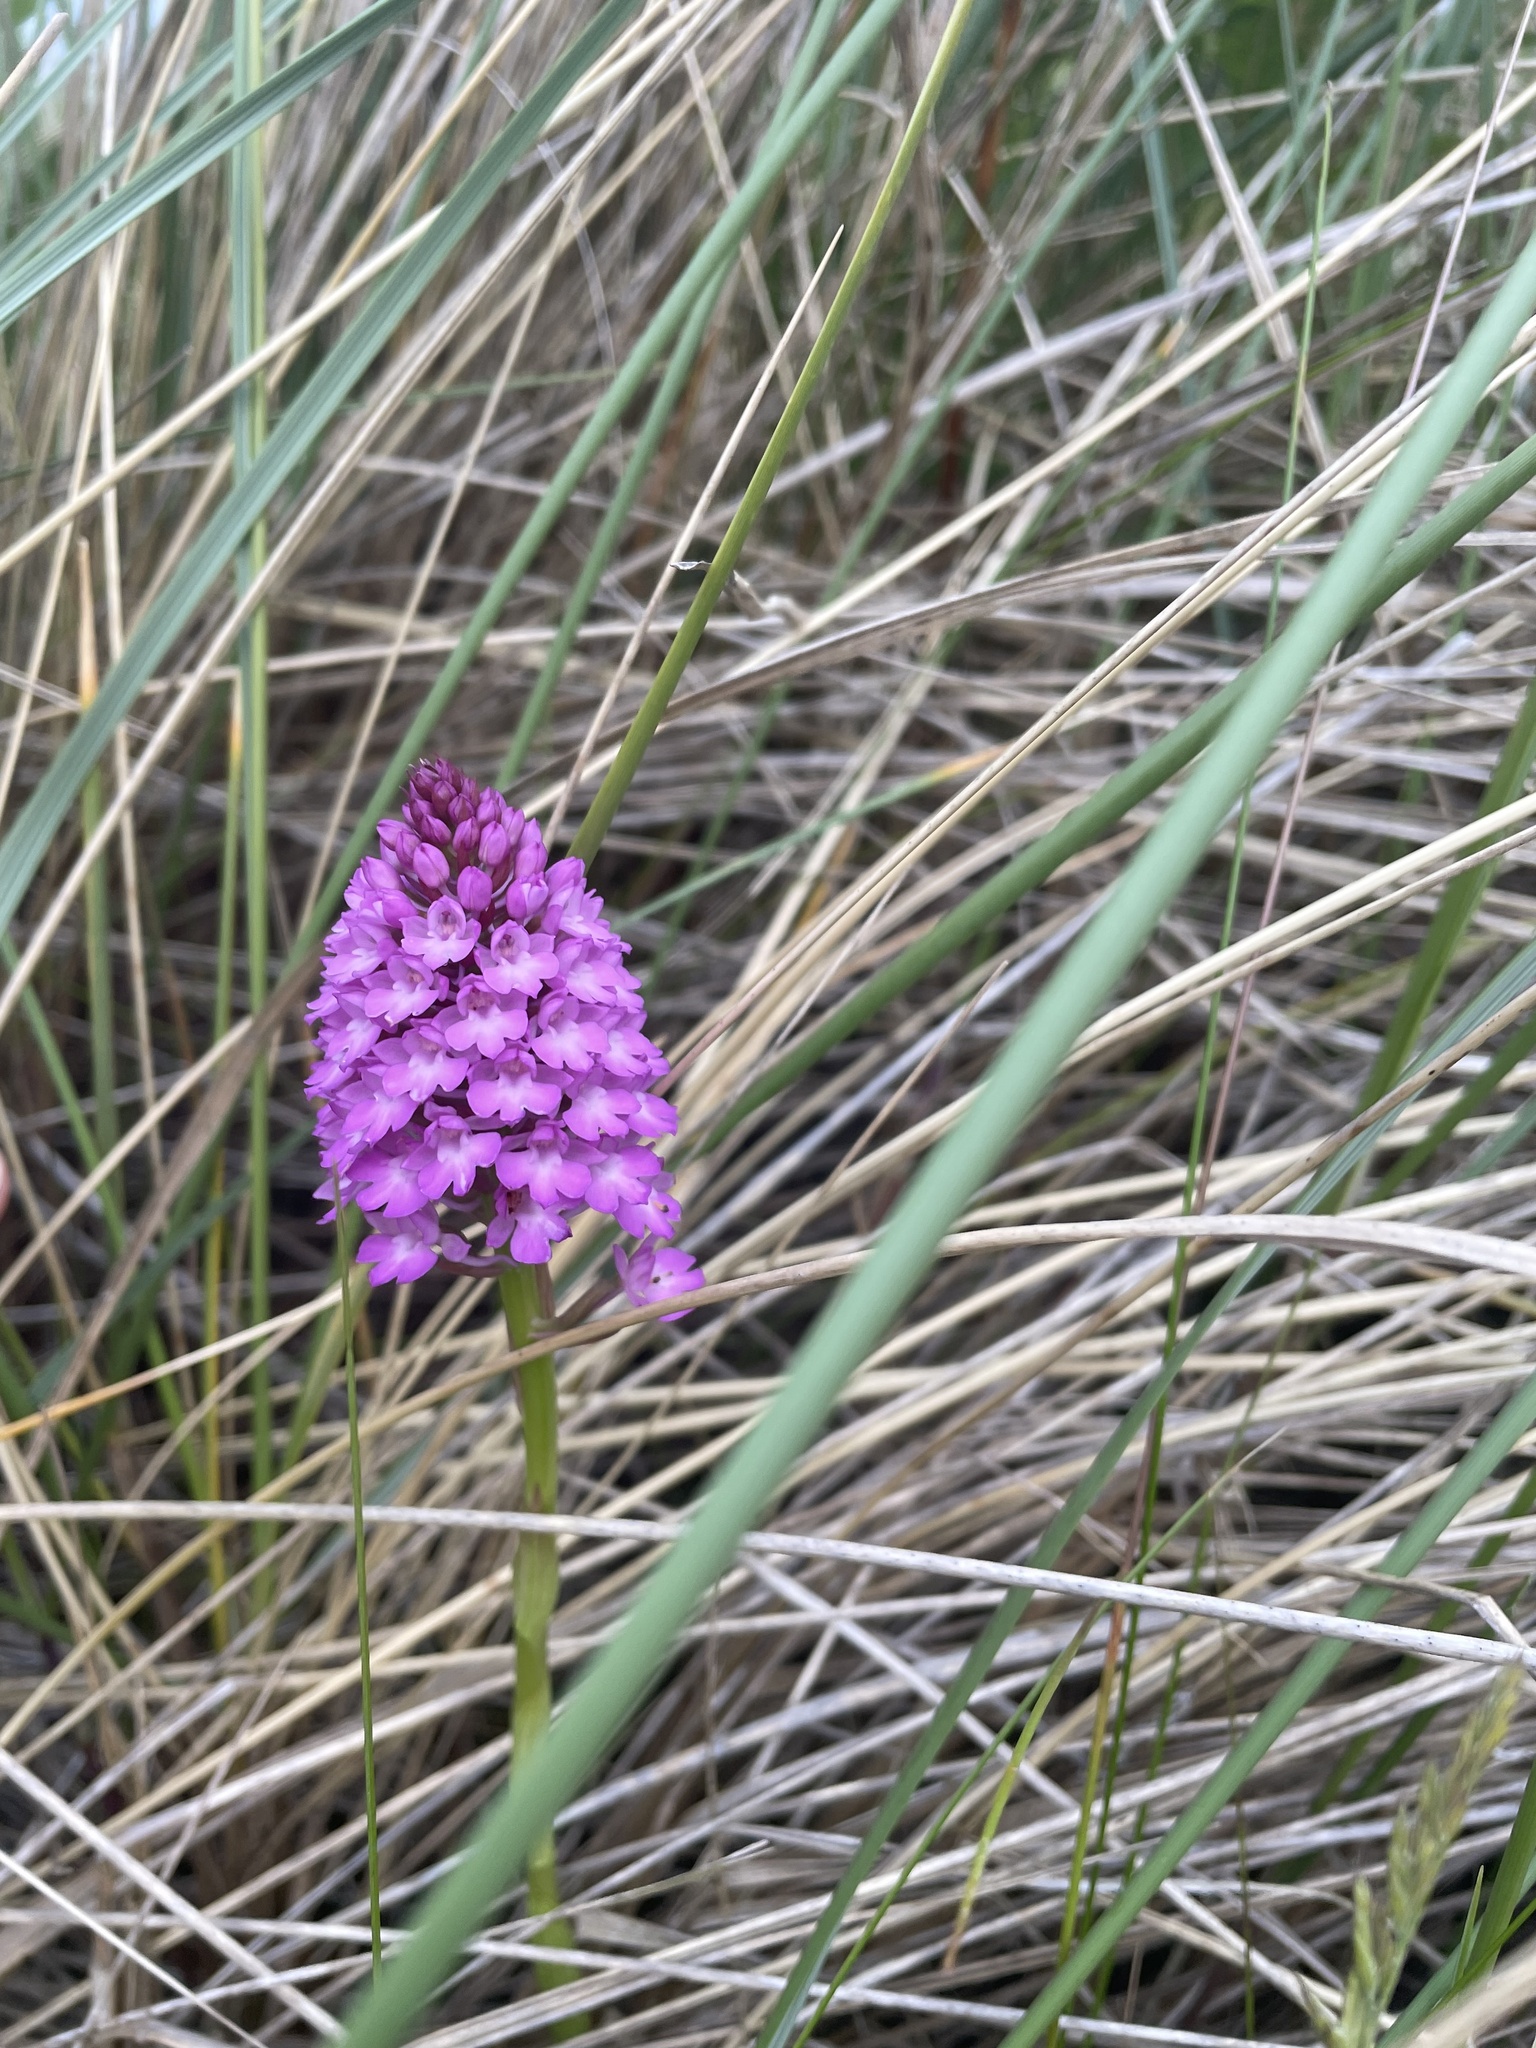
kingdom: Plantae
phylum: Tracheophyta
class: Liliopsida
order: Asparagales
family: Orchidaceae
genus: Anacamptis
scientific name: Anacamptis pyramidalis
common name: Pyramidal orchid
